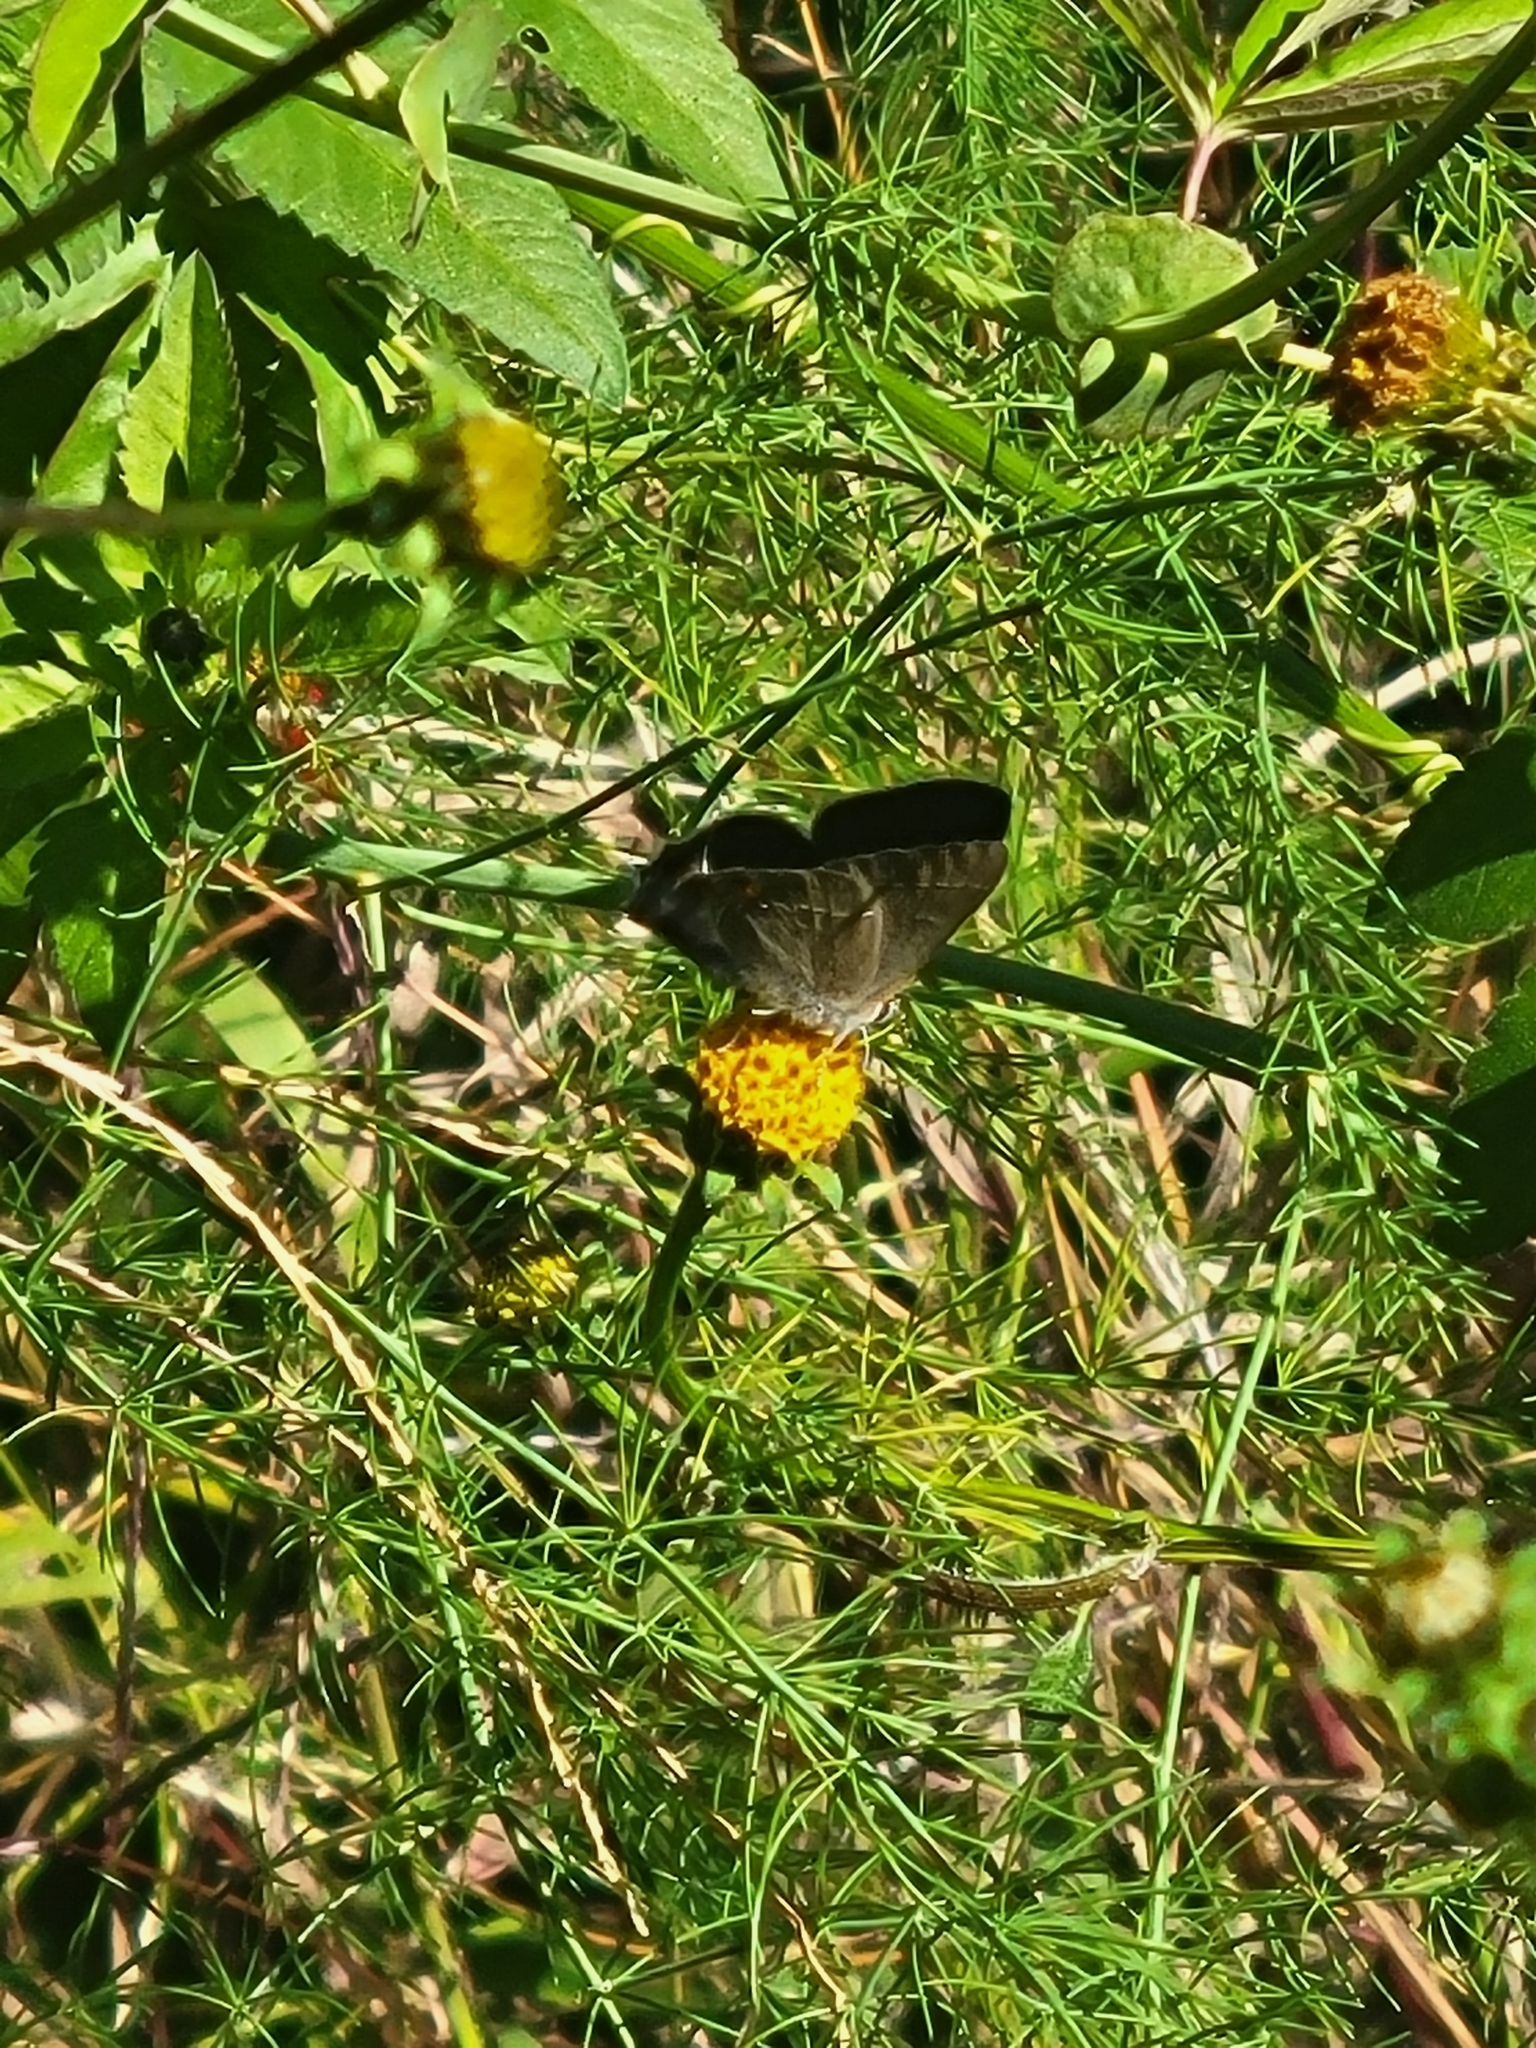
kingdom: Animalia
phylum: Arthropoda
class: Insecta
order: Lepidoptera
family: Lycaenidae
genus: Strymon
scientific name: Strymon melinus
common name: Gray hairstreak
